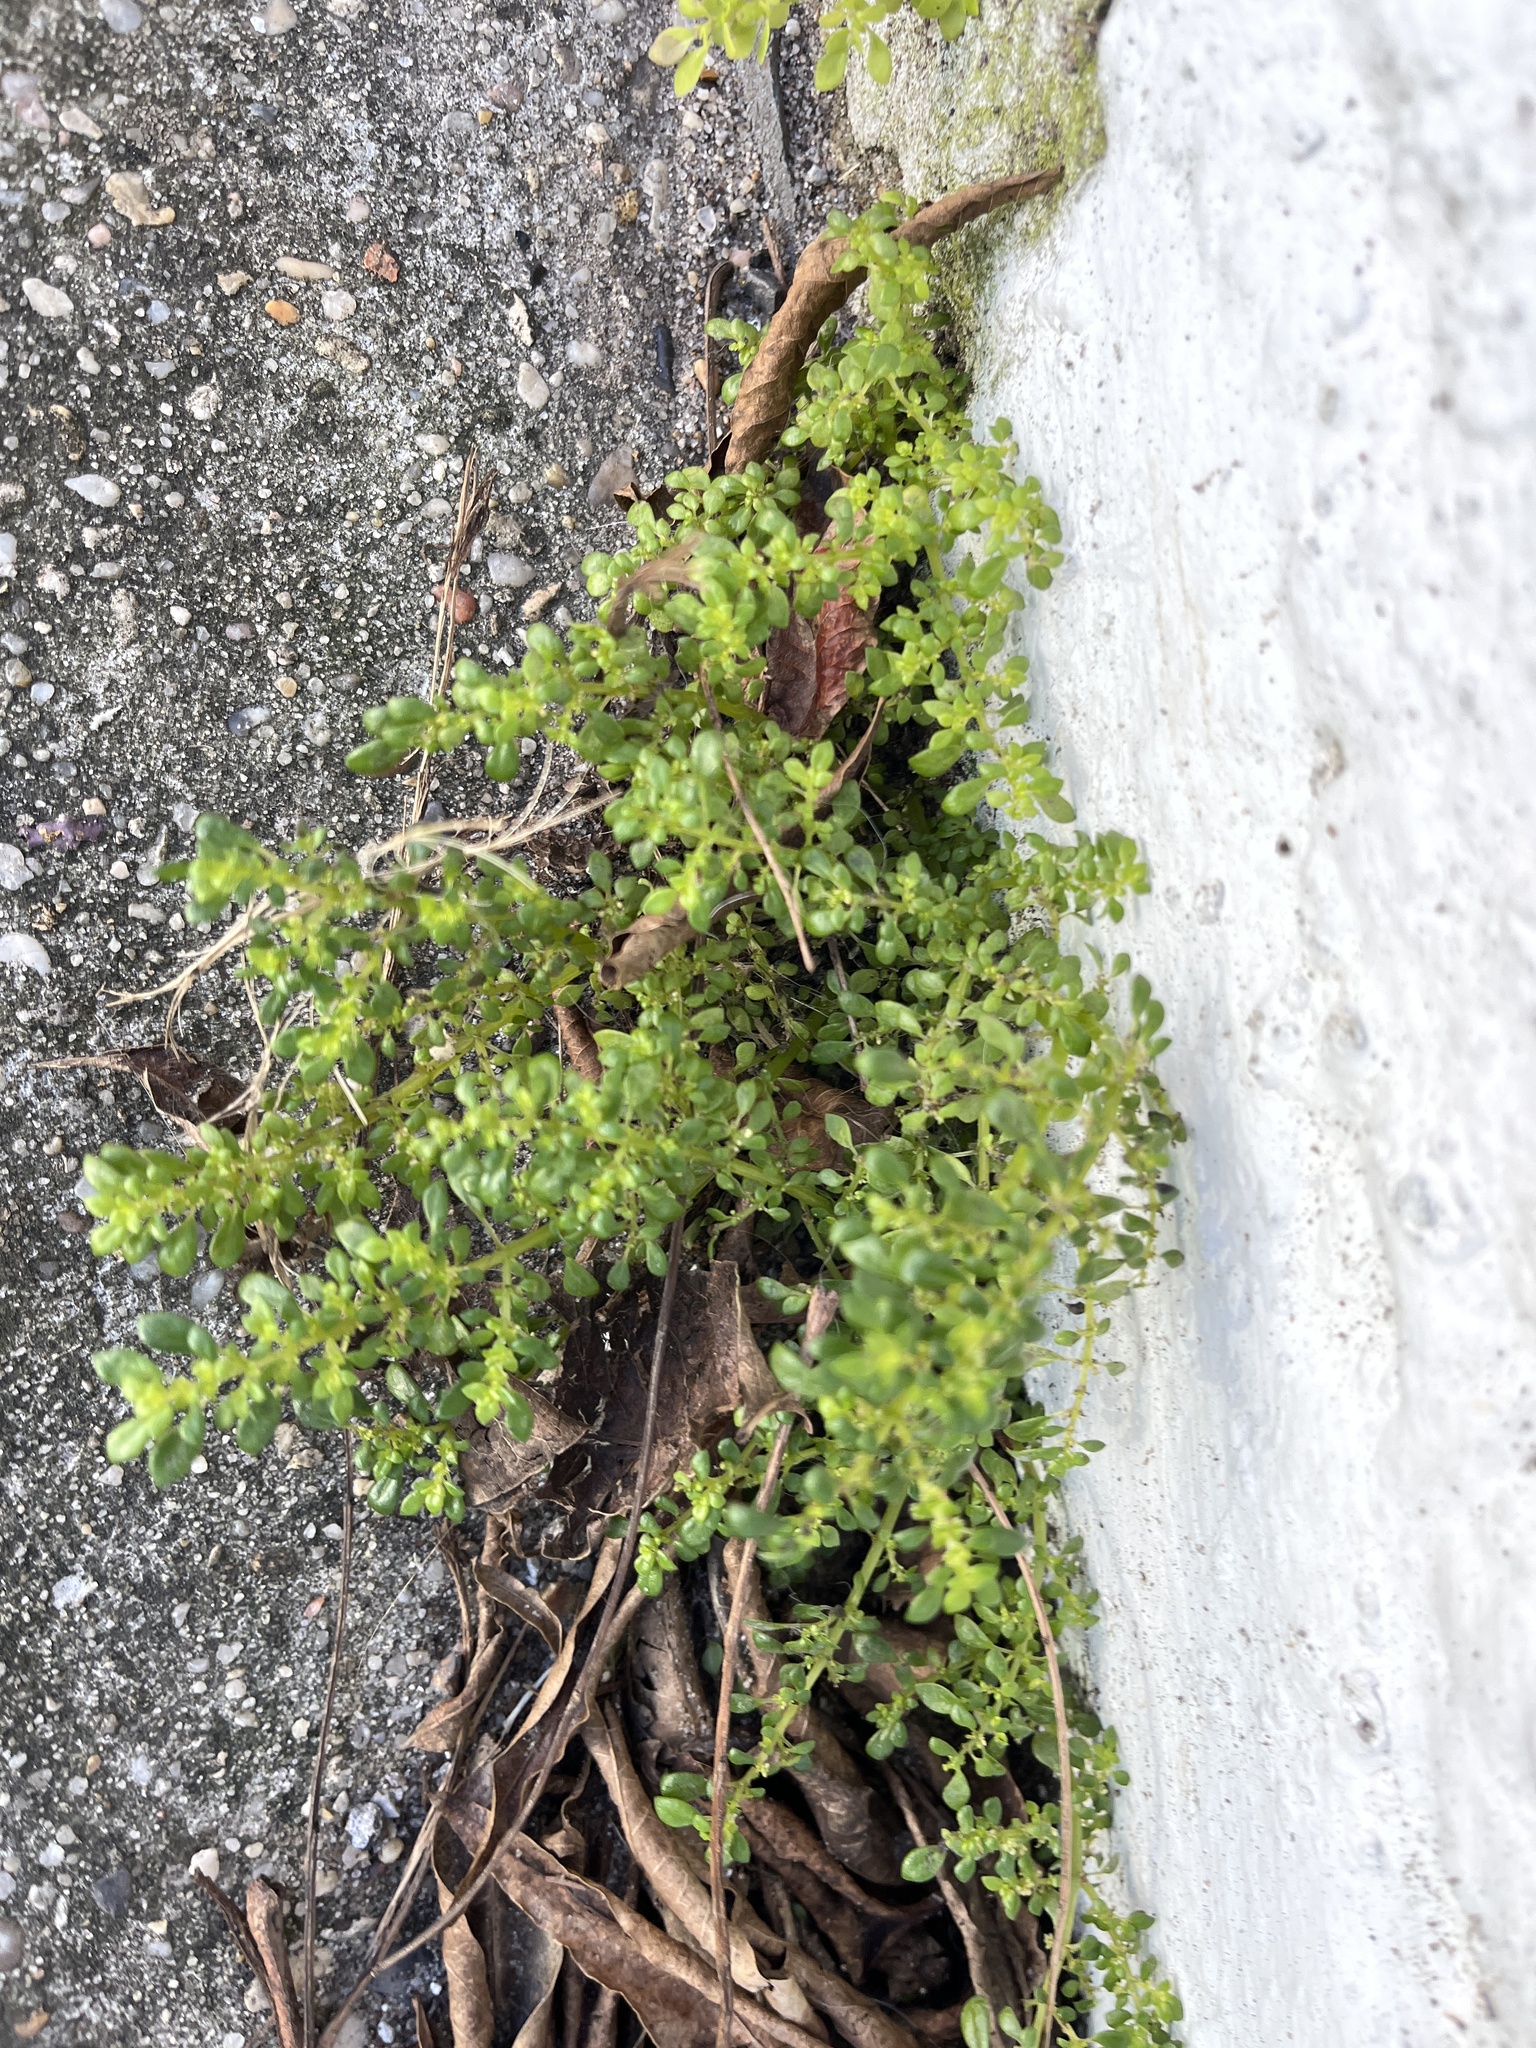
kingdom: Plantae
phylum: Tracheophyta
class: Magnoliopsida
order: Rosales
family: Urticaceae
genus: Pilea
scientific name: Pilea microphylla
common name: Artillery-plant
